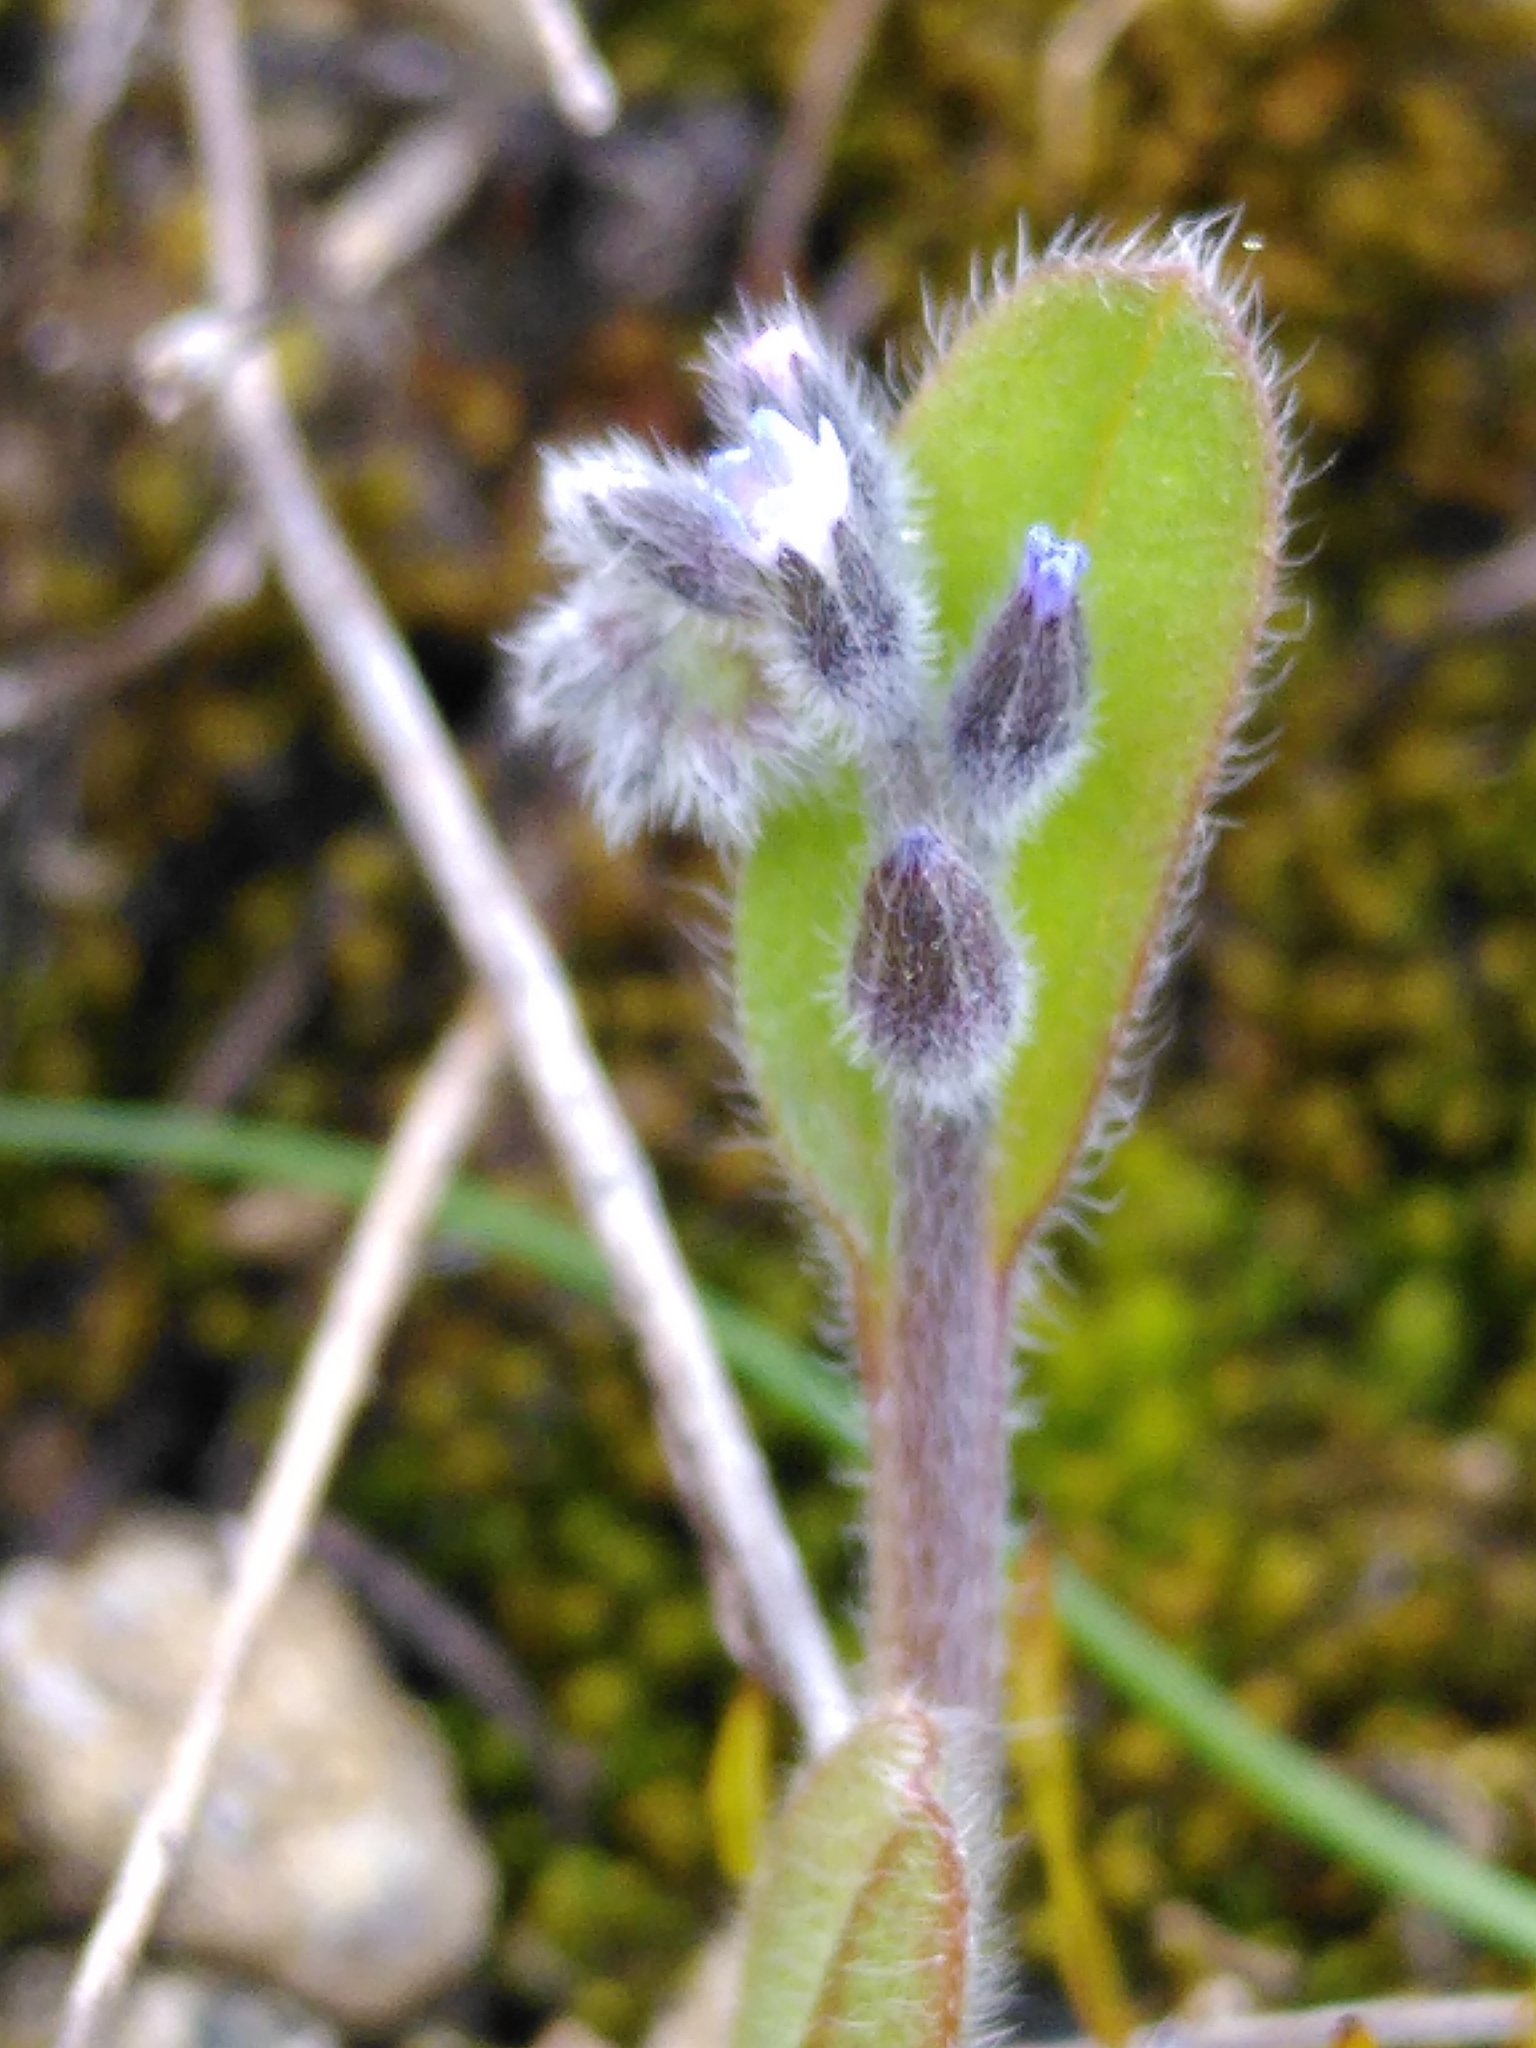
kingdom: Plantae
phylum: Tracheophyta
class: Magnoliopsida
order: Boraginales
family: Boraginaceae
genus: Myosotis
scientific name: Myosotis ramosissima
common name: Early forget-me-not
